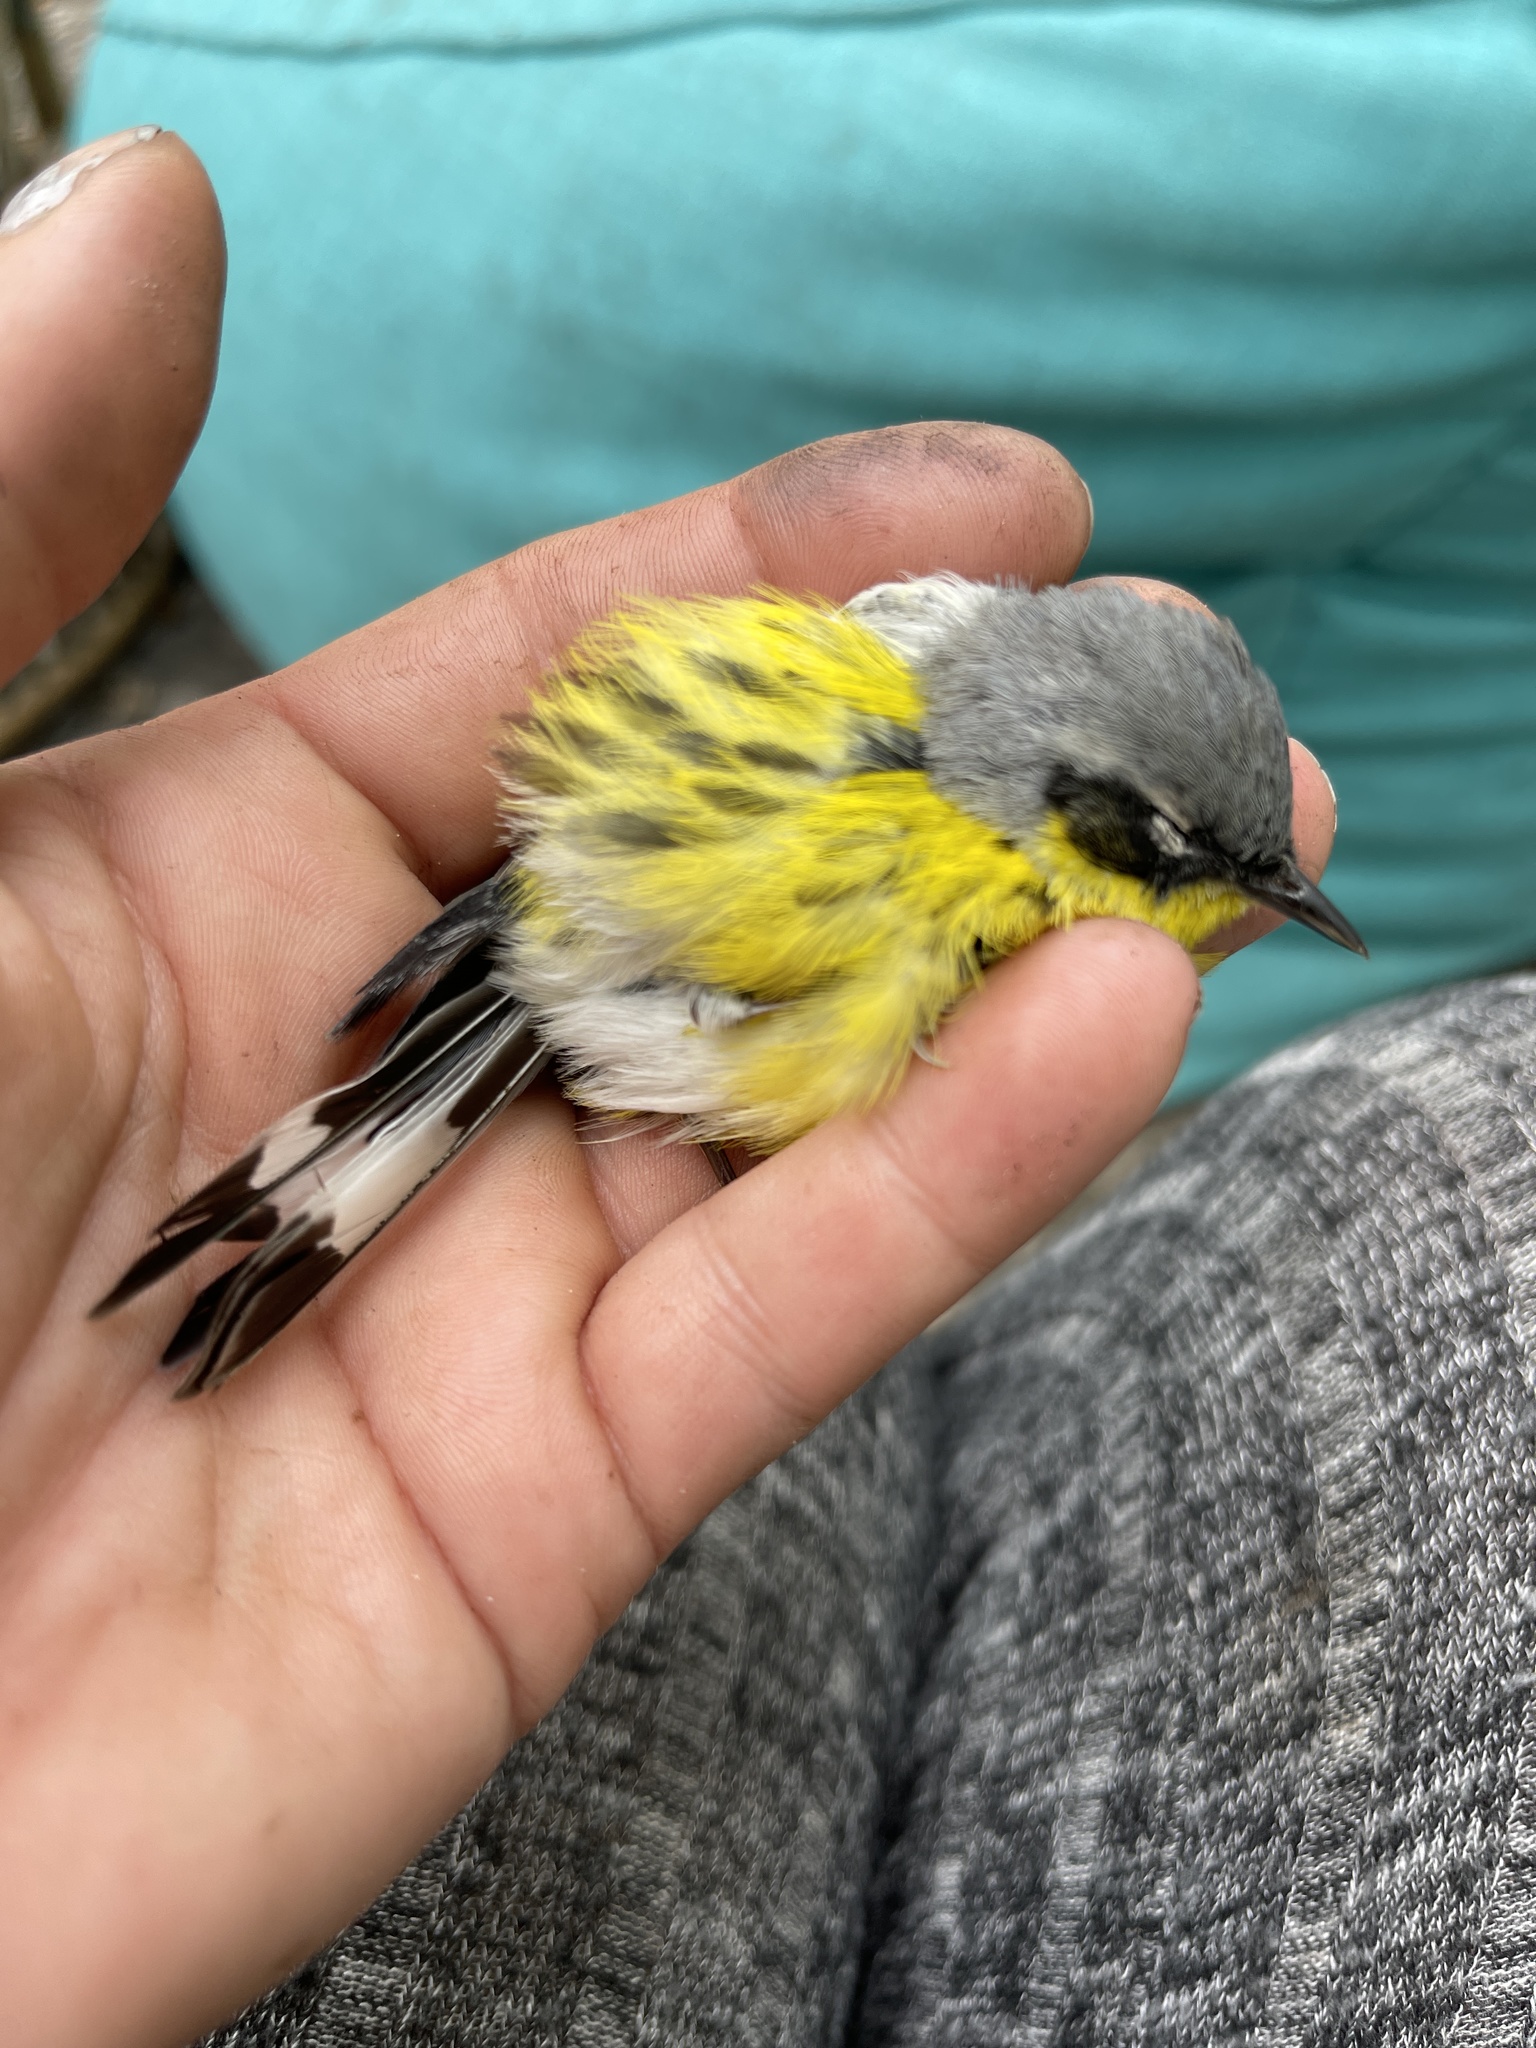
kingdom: Animalia
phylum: Chordata
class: Aves
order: Passeriformes
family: Parulidae
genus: Setophaga
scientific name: Setophaga magnolia
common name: Magnolia warbler
